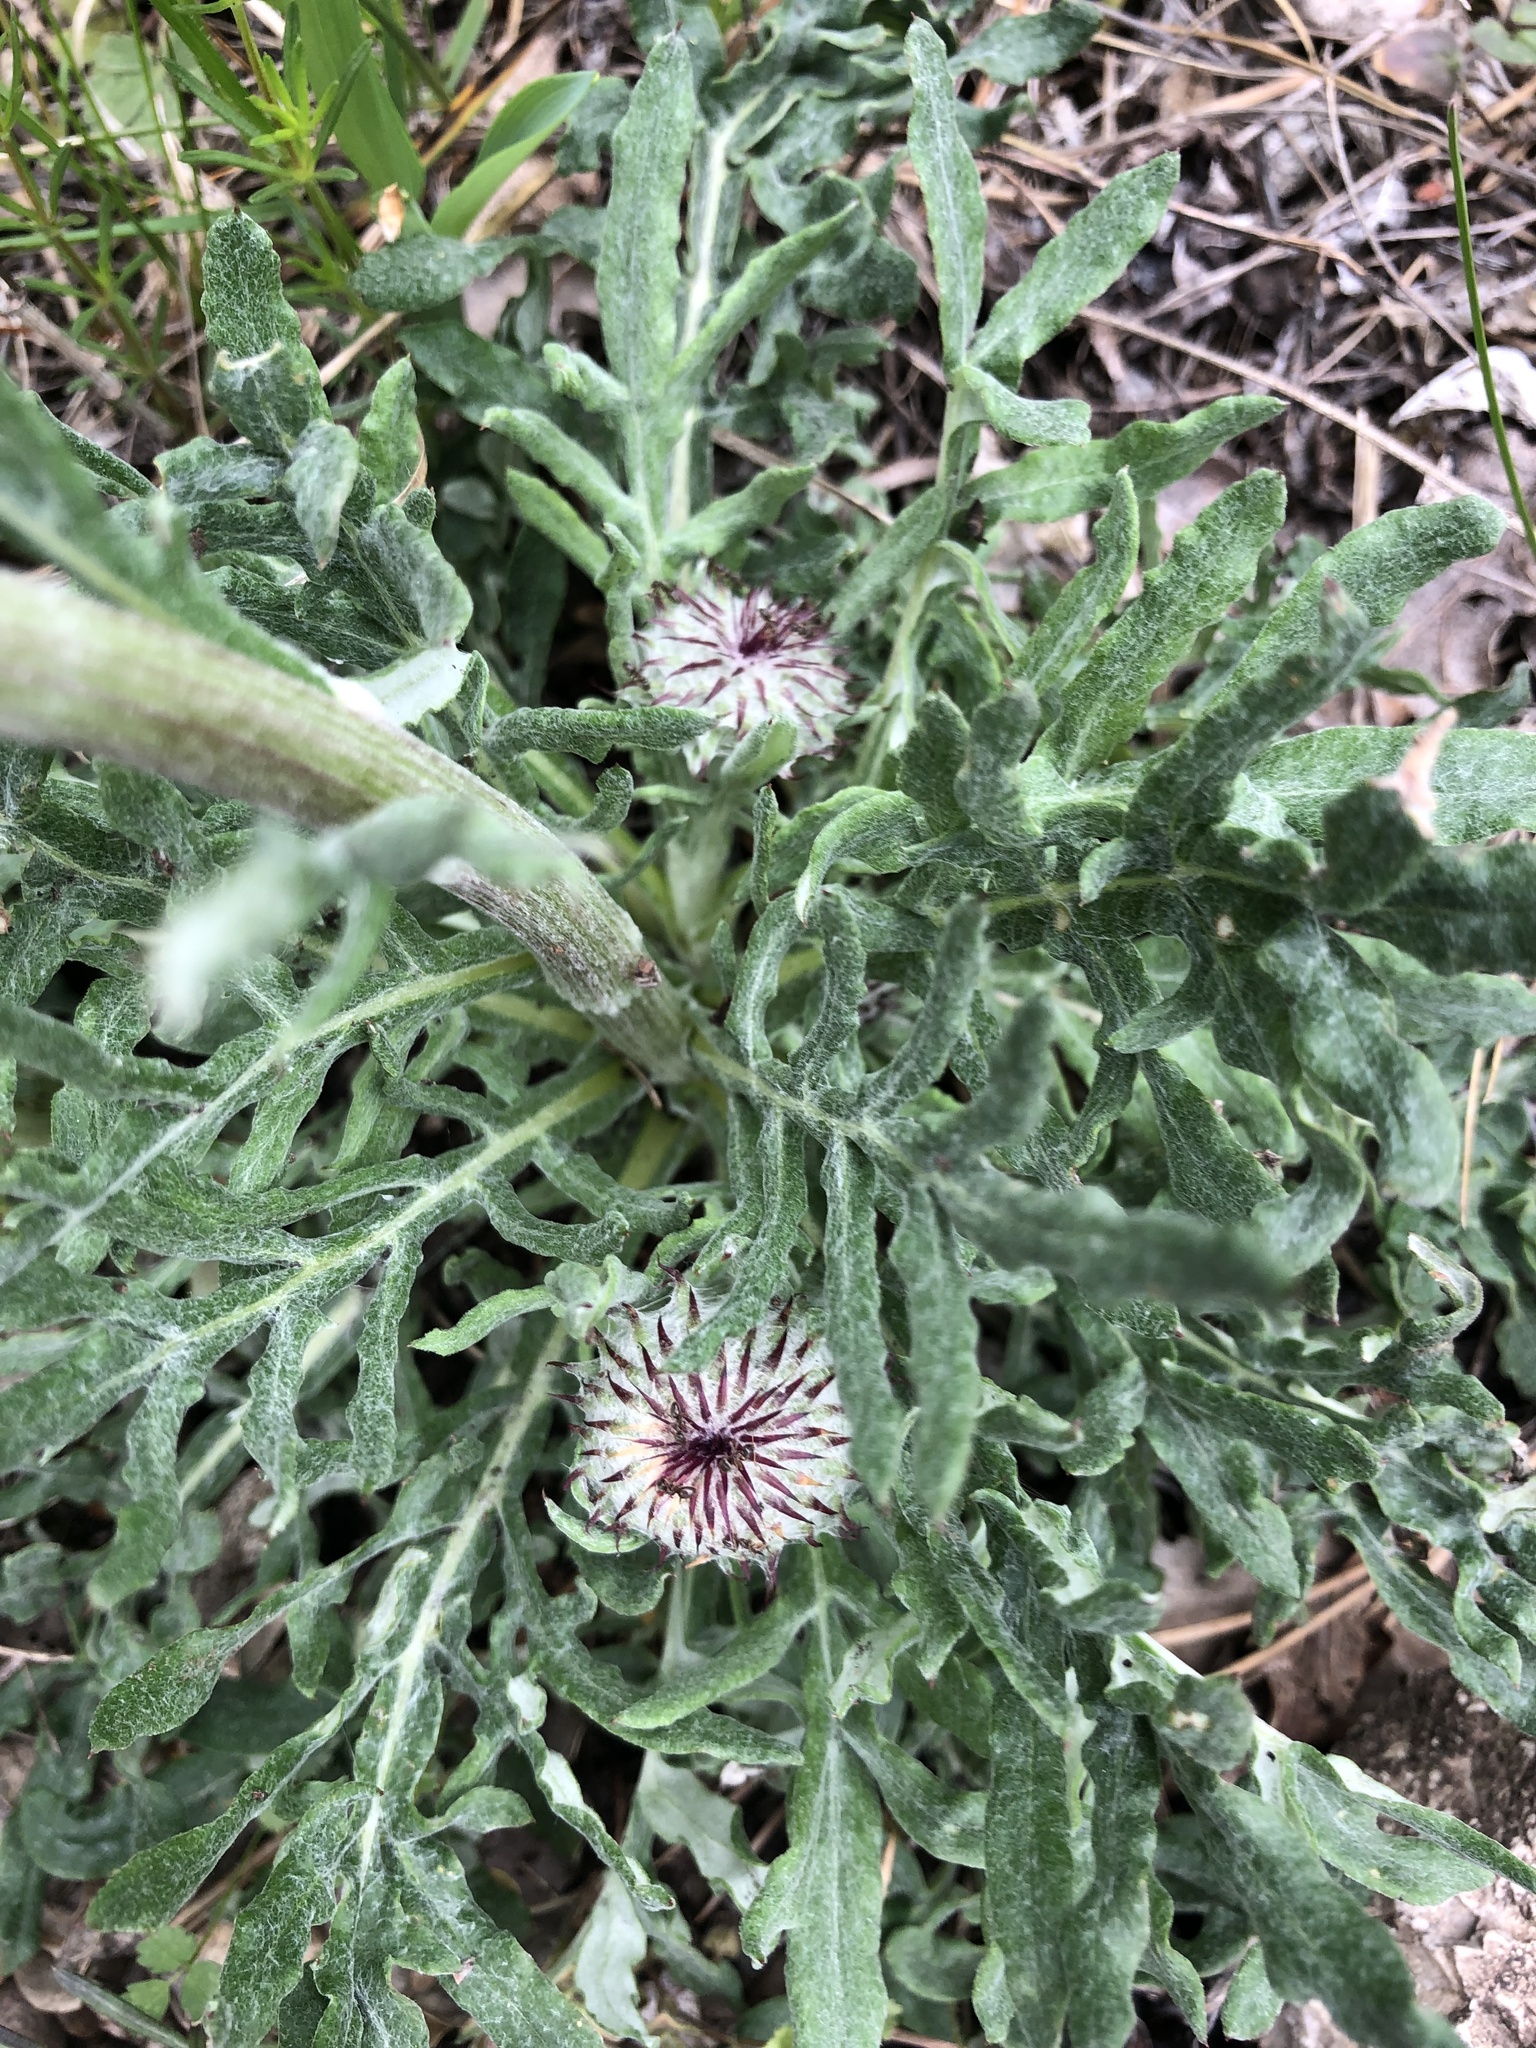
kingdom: Plantae
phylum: Tracheophyta
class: Magnoliopsida
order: Asterales
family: Asteraceae
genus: Jurinea
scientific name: Jurinea mollis
